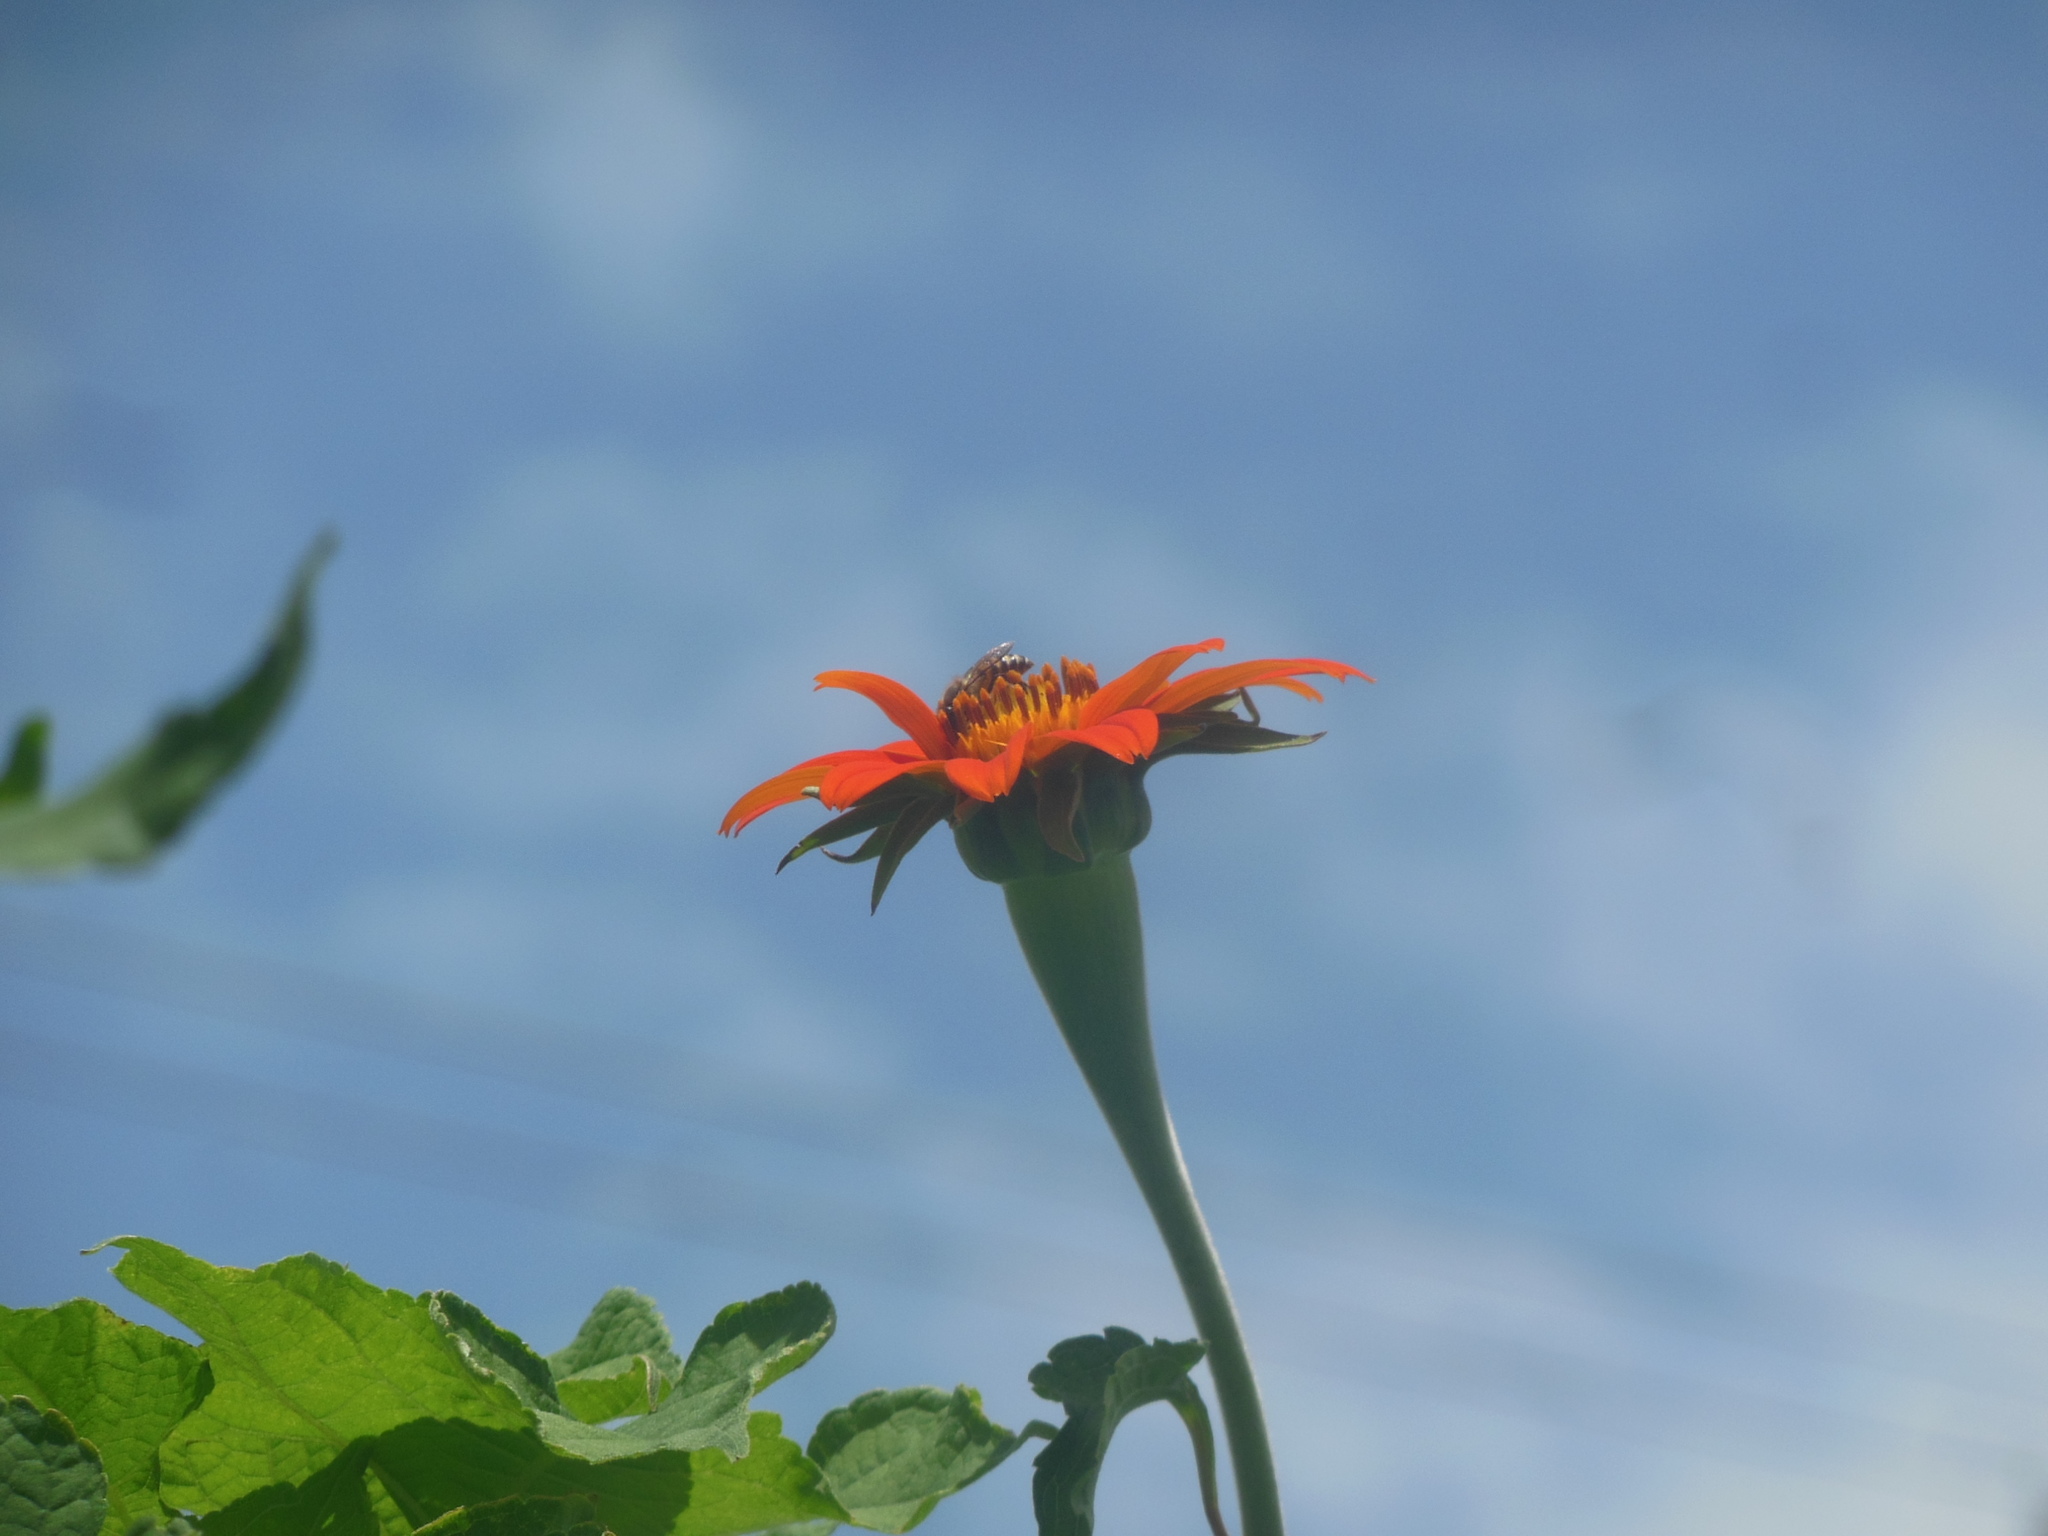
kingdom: Animalia
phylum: Arthropoda
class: Insecta
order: Hymenoptera
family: Apidae
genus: Apis
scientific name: Apis cerana
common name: Honey bee
